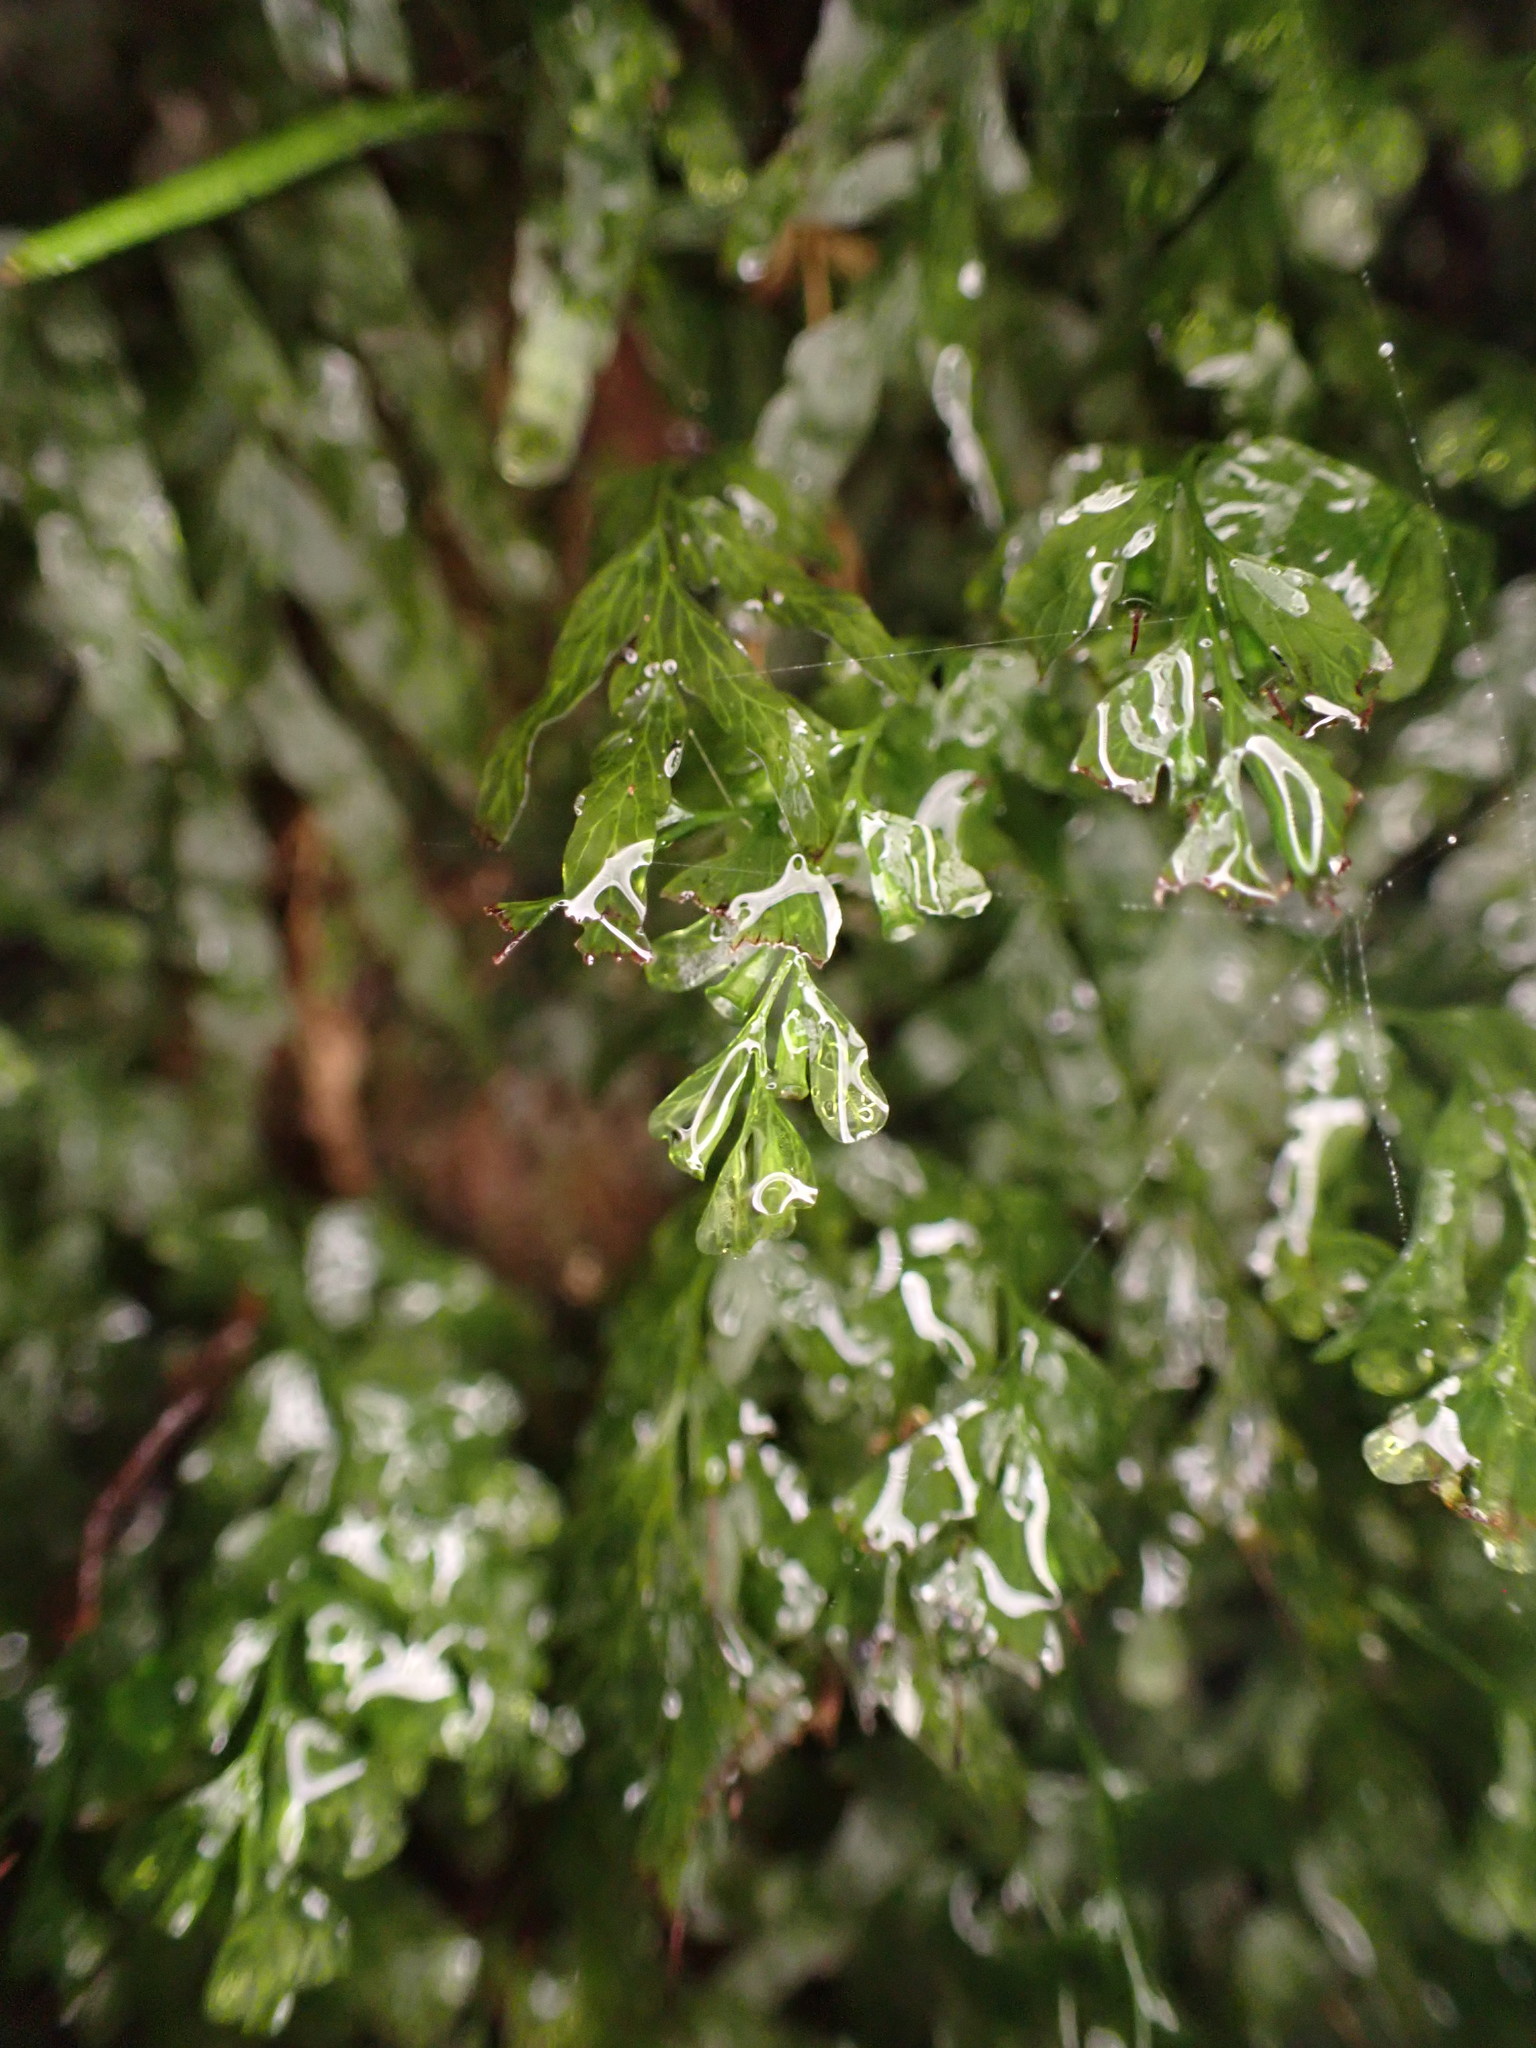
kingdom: Plantae
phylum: Tracheophyta
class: Polypodiopsida
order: Hymenophyllales
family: Hymenophyllaceae
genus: Polyphlebium
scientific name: Polyphlebium venosum
